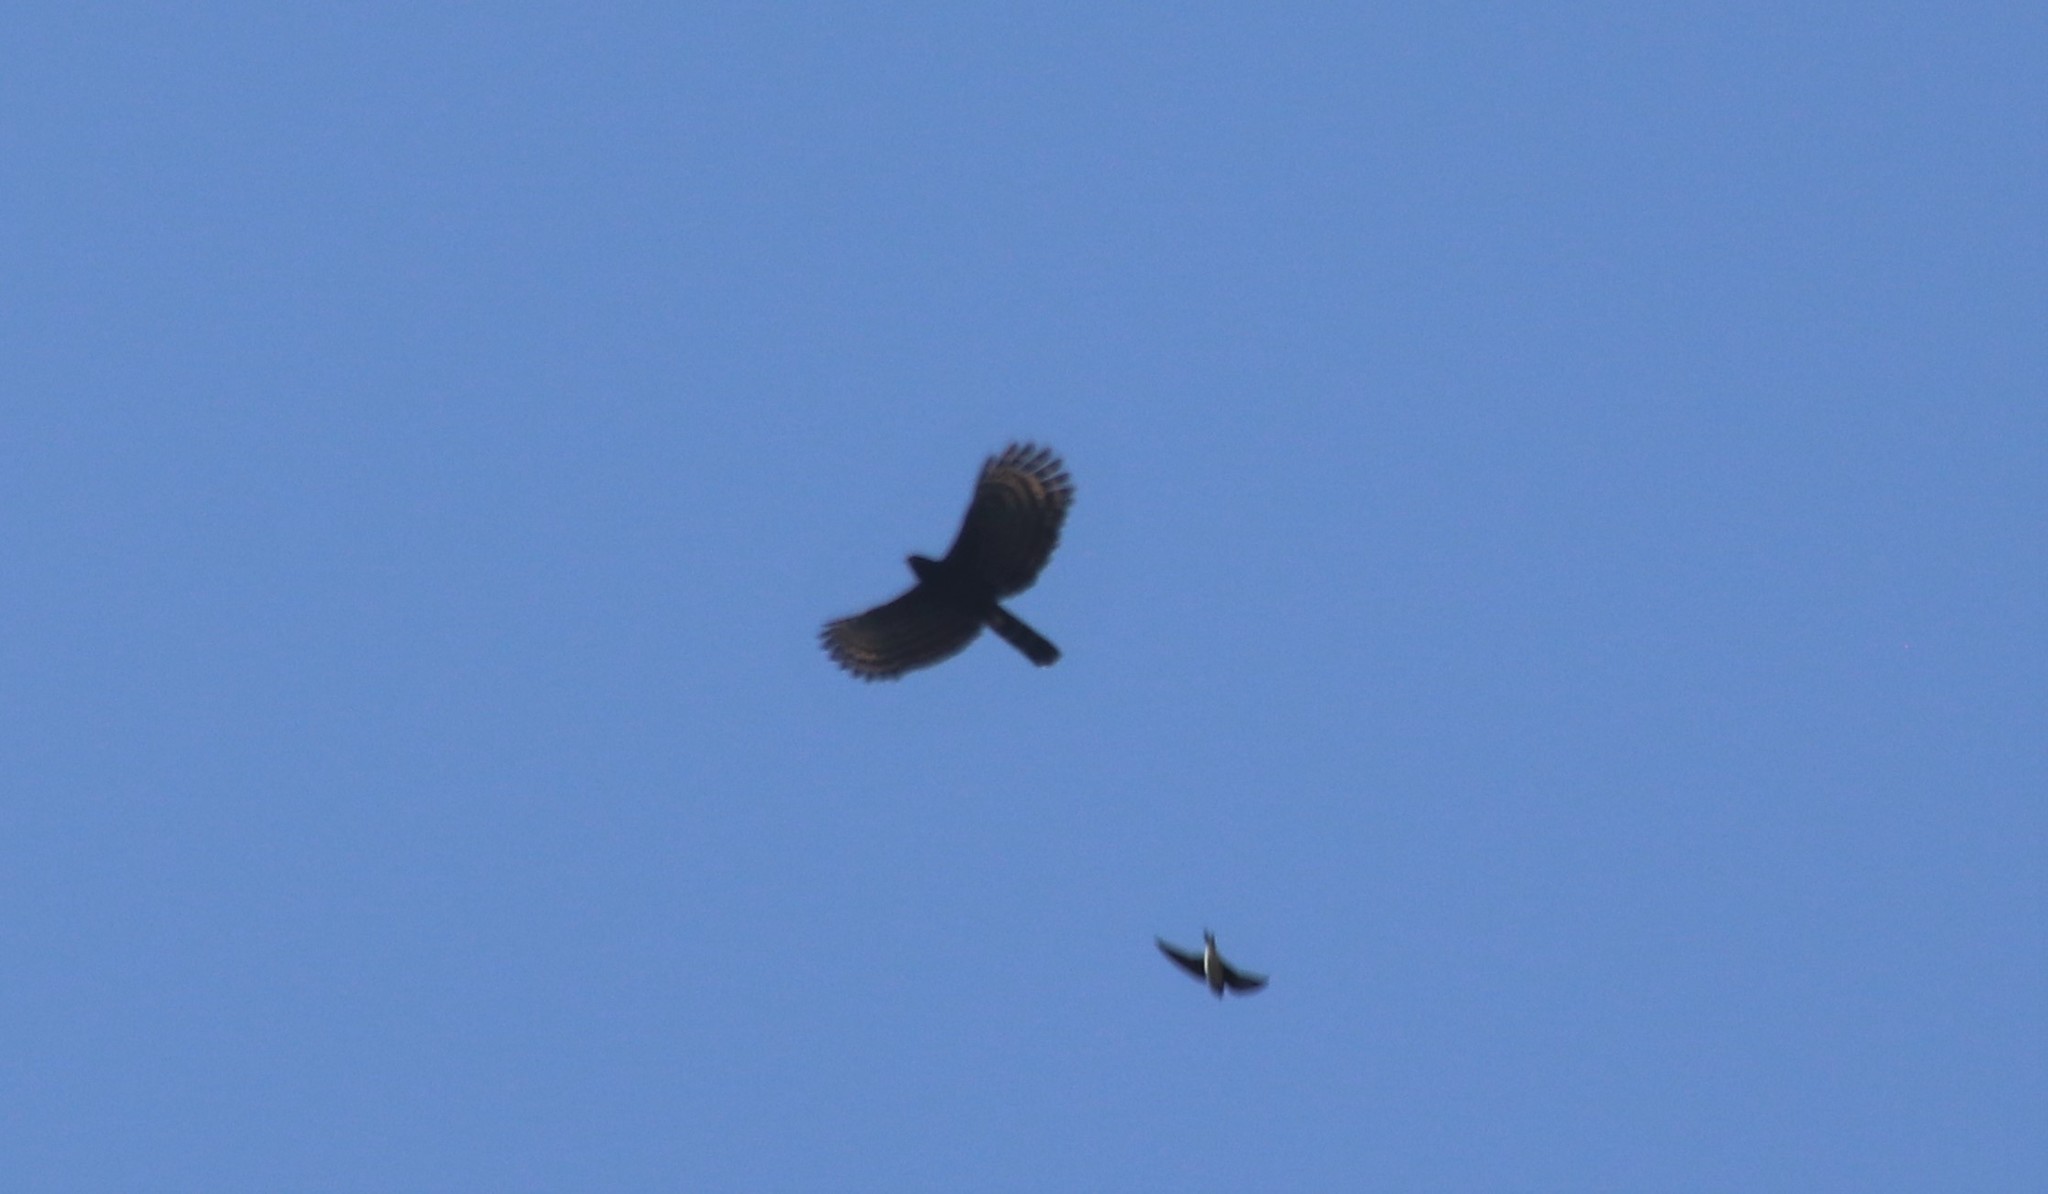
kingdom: Animalia
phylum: Chordata
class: Aves
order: Accipitriformes
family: Accipitridae
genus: Spizaetus
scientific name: Spizaetus tyrannus
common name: Black hawk-eagle
